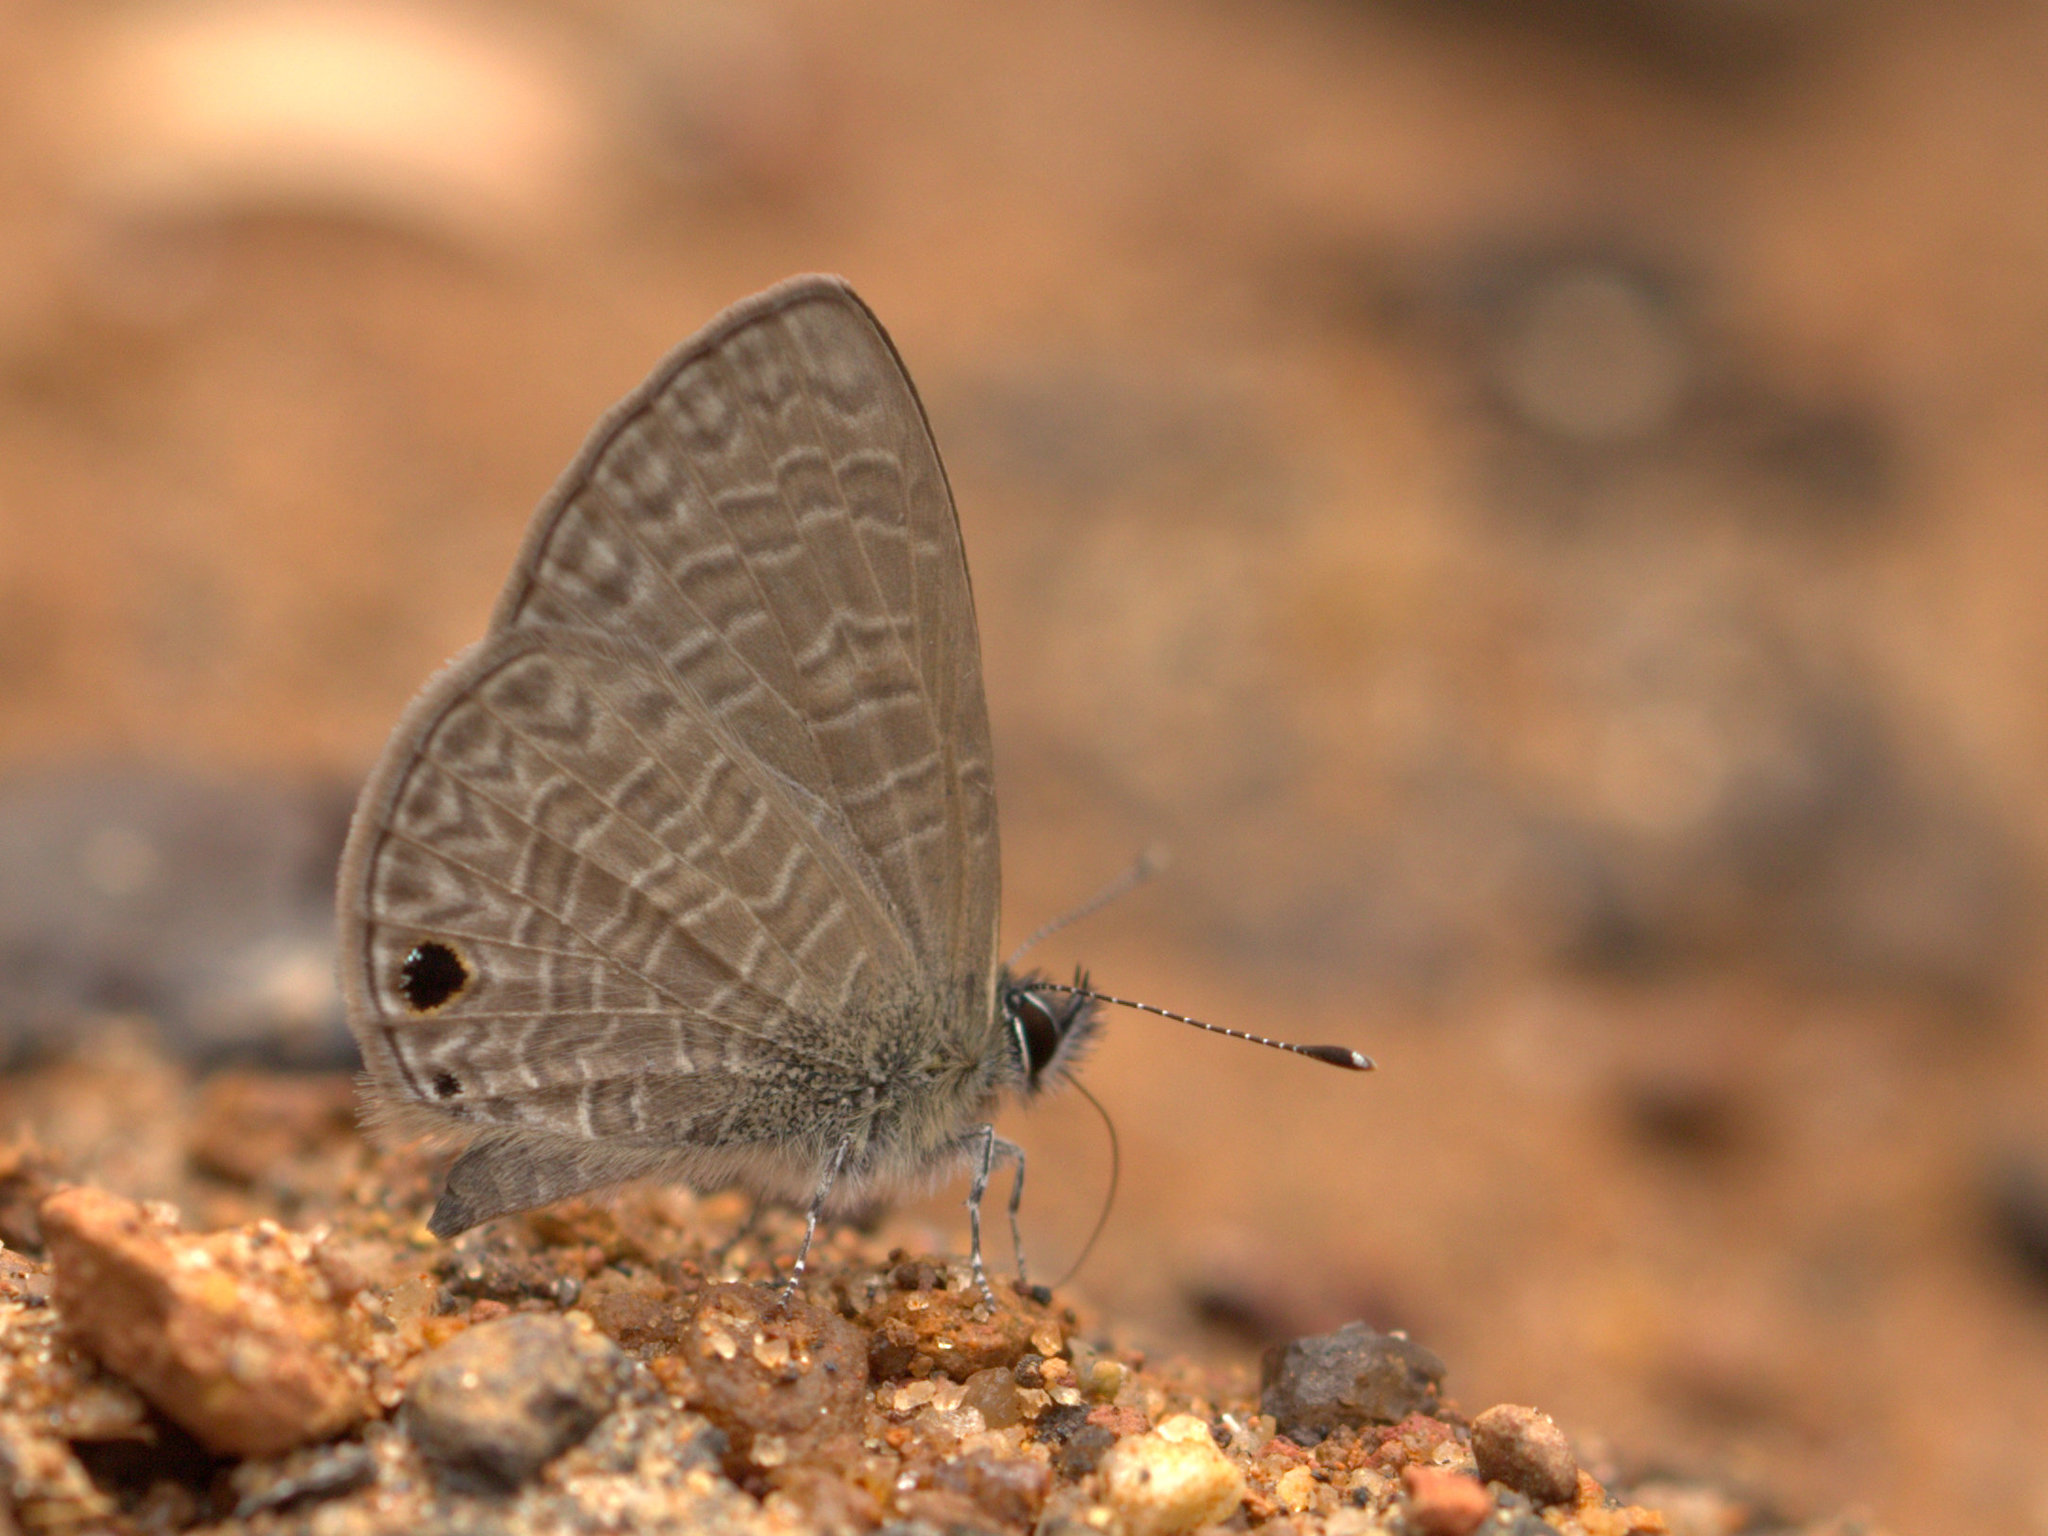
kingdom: Animalia
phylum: Arthropoda
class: Insecta
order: Lepidoptera
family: Lycaenidae
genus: Prosotas
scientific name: Prosotas dubiosa
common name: Tailless lineblue
